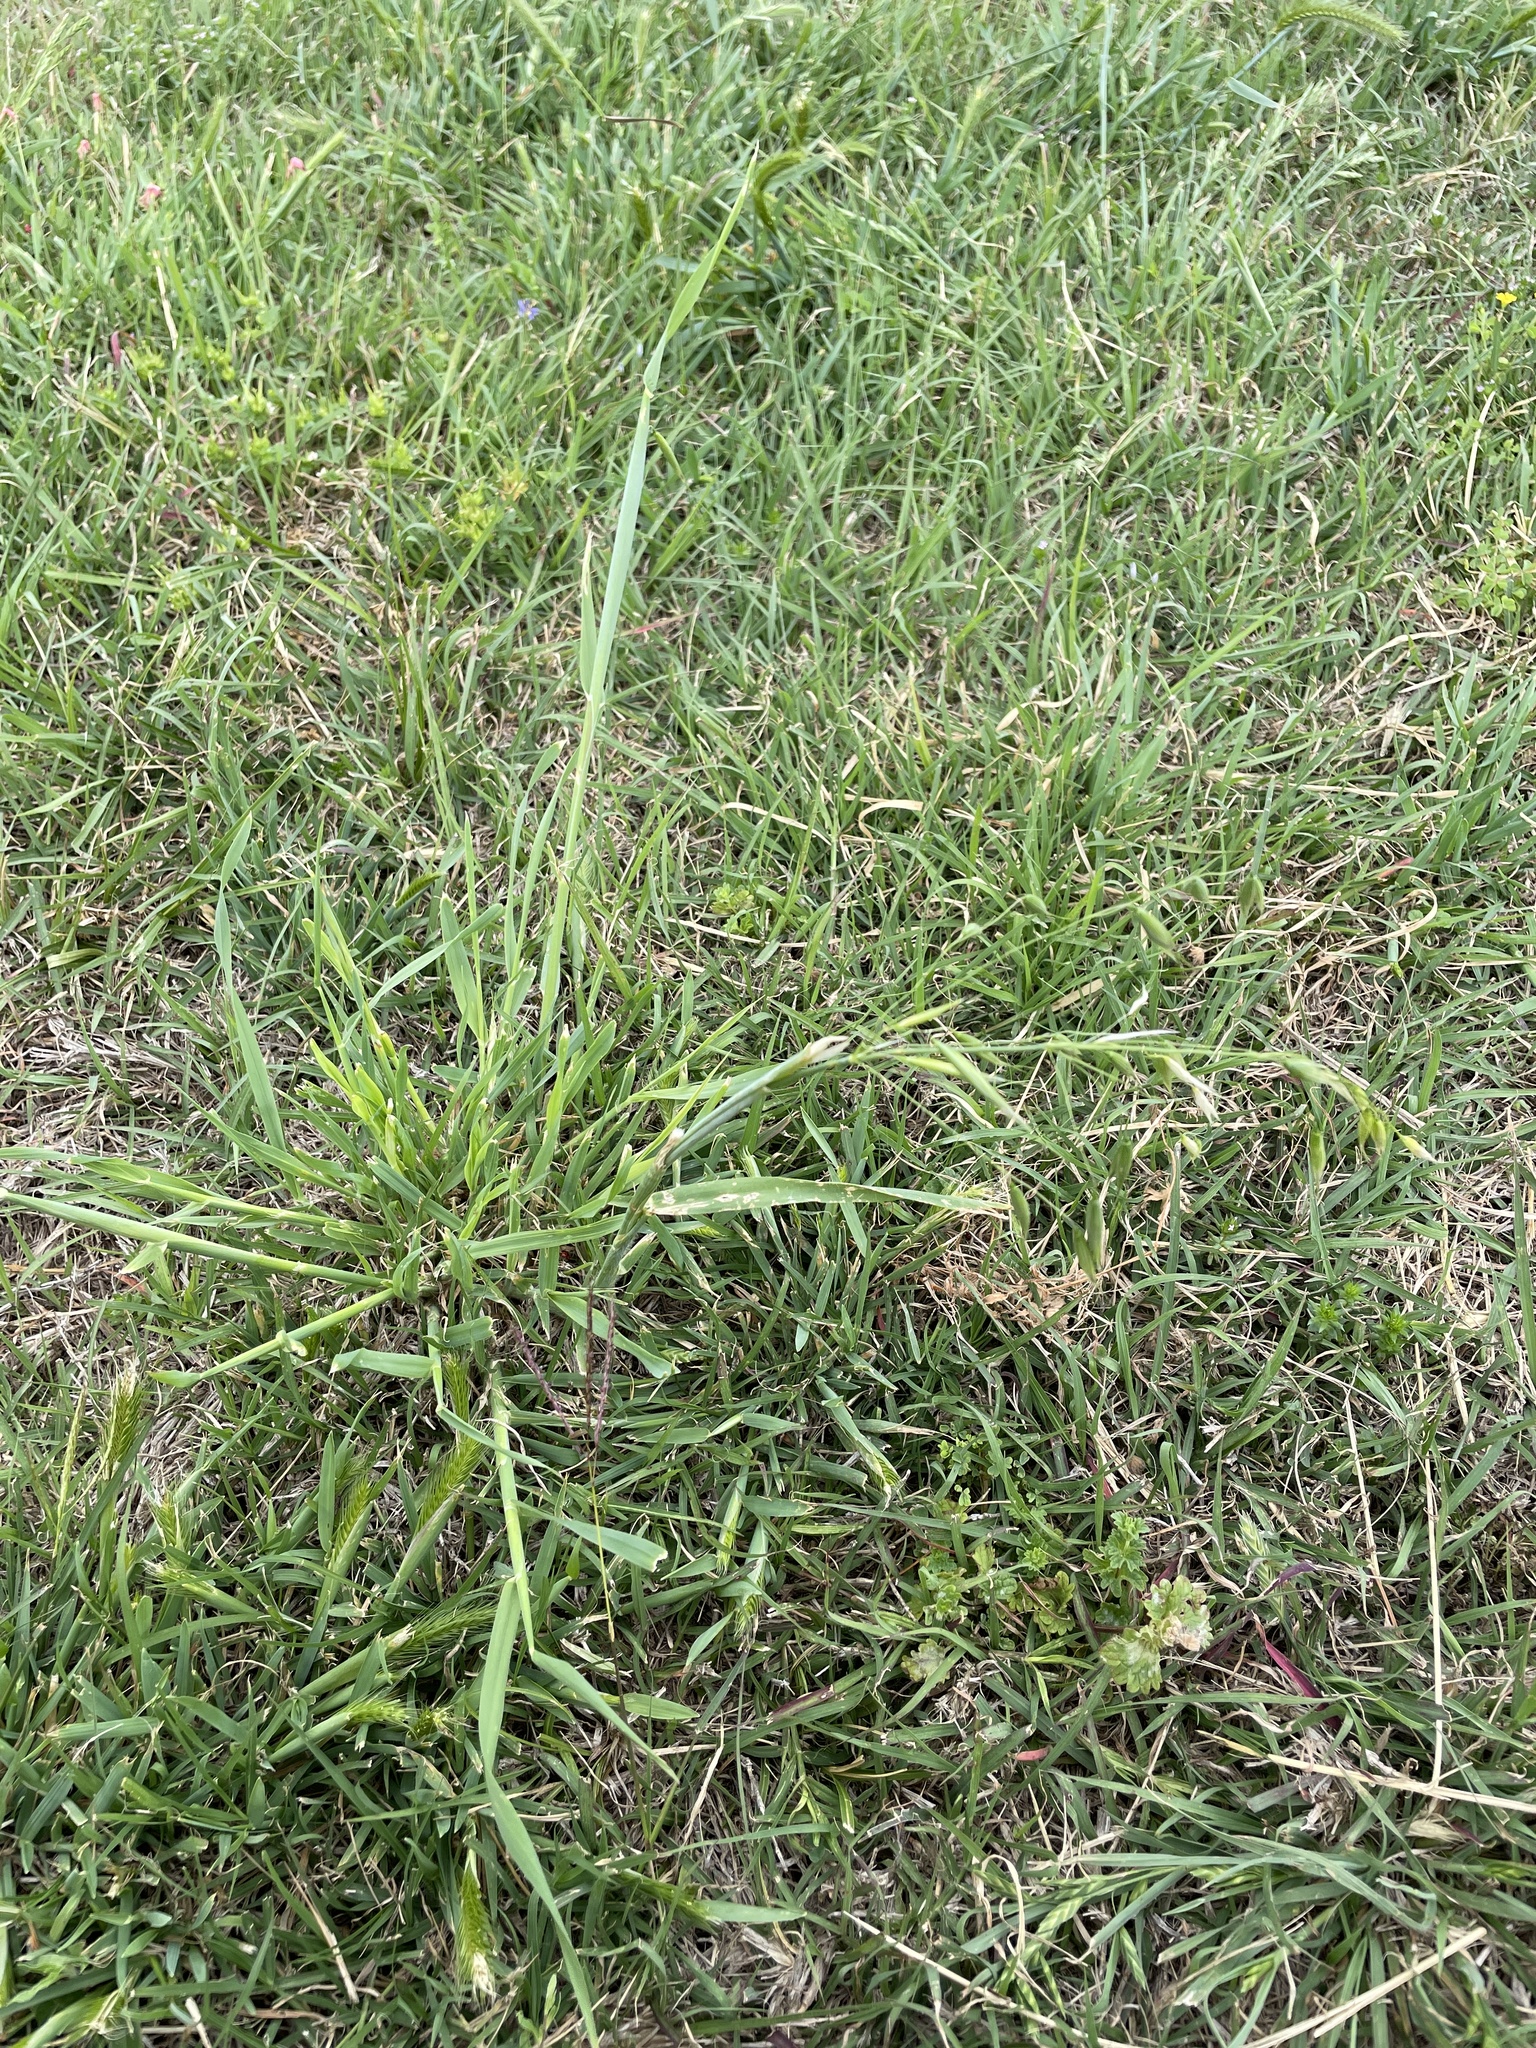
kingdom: Plantae
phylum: Tracheophyta
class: Liliopsida
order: Poales
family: Poaceae
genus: Avena
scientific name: Avena fatua
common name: Wild oat
